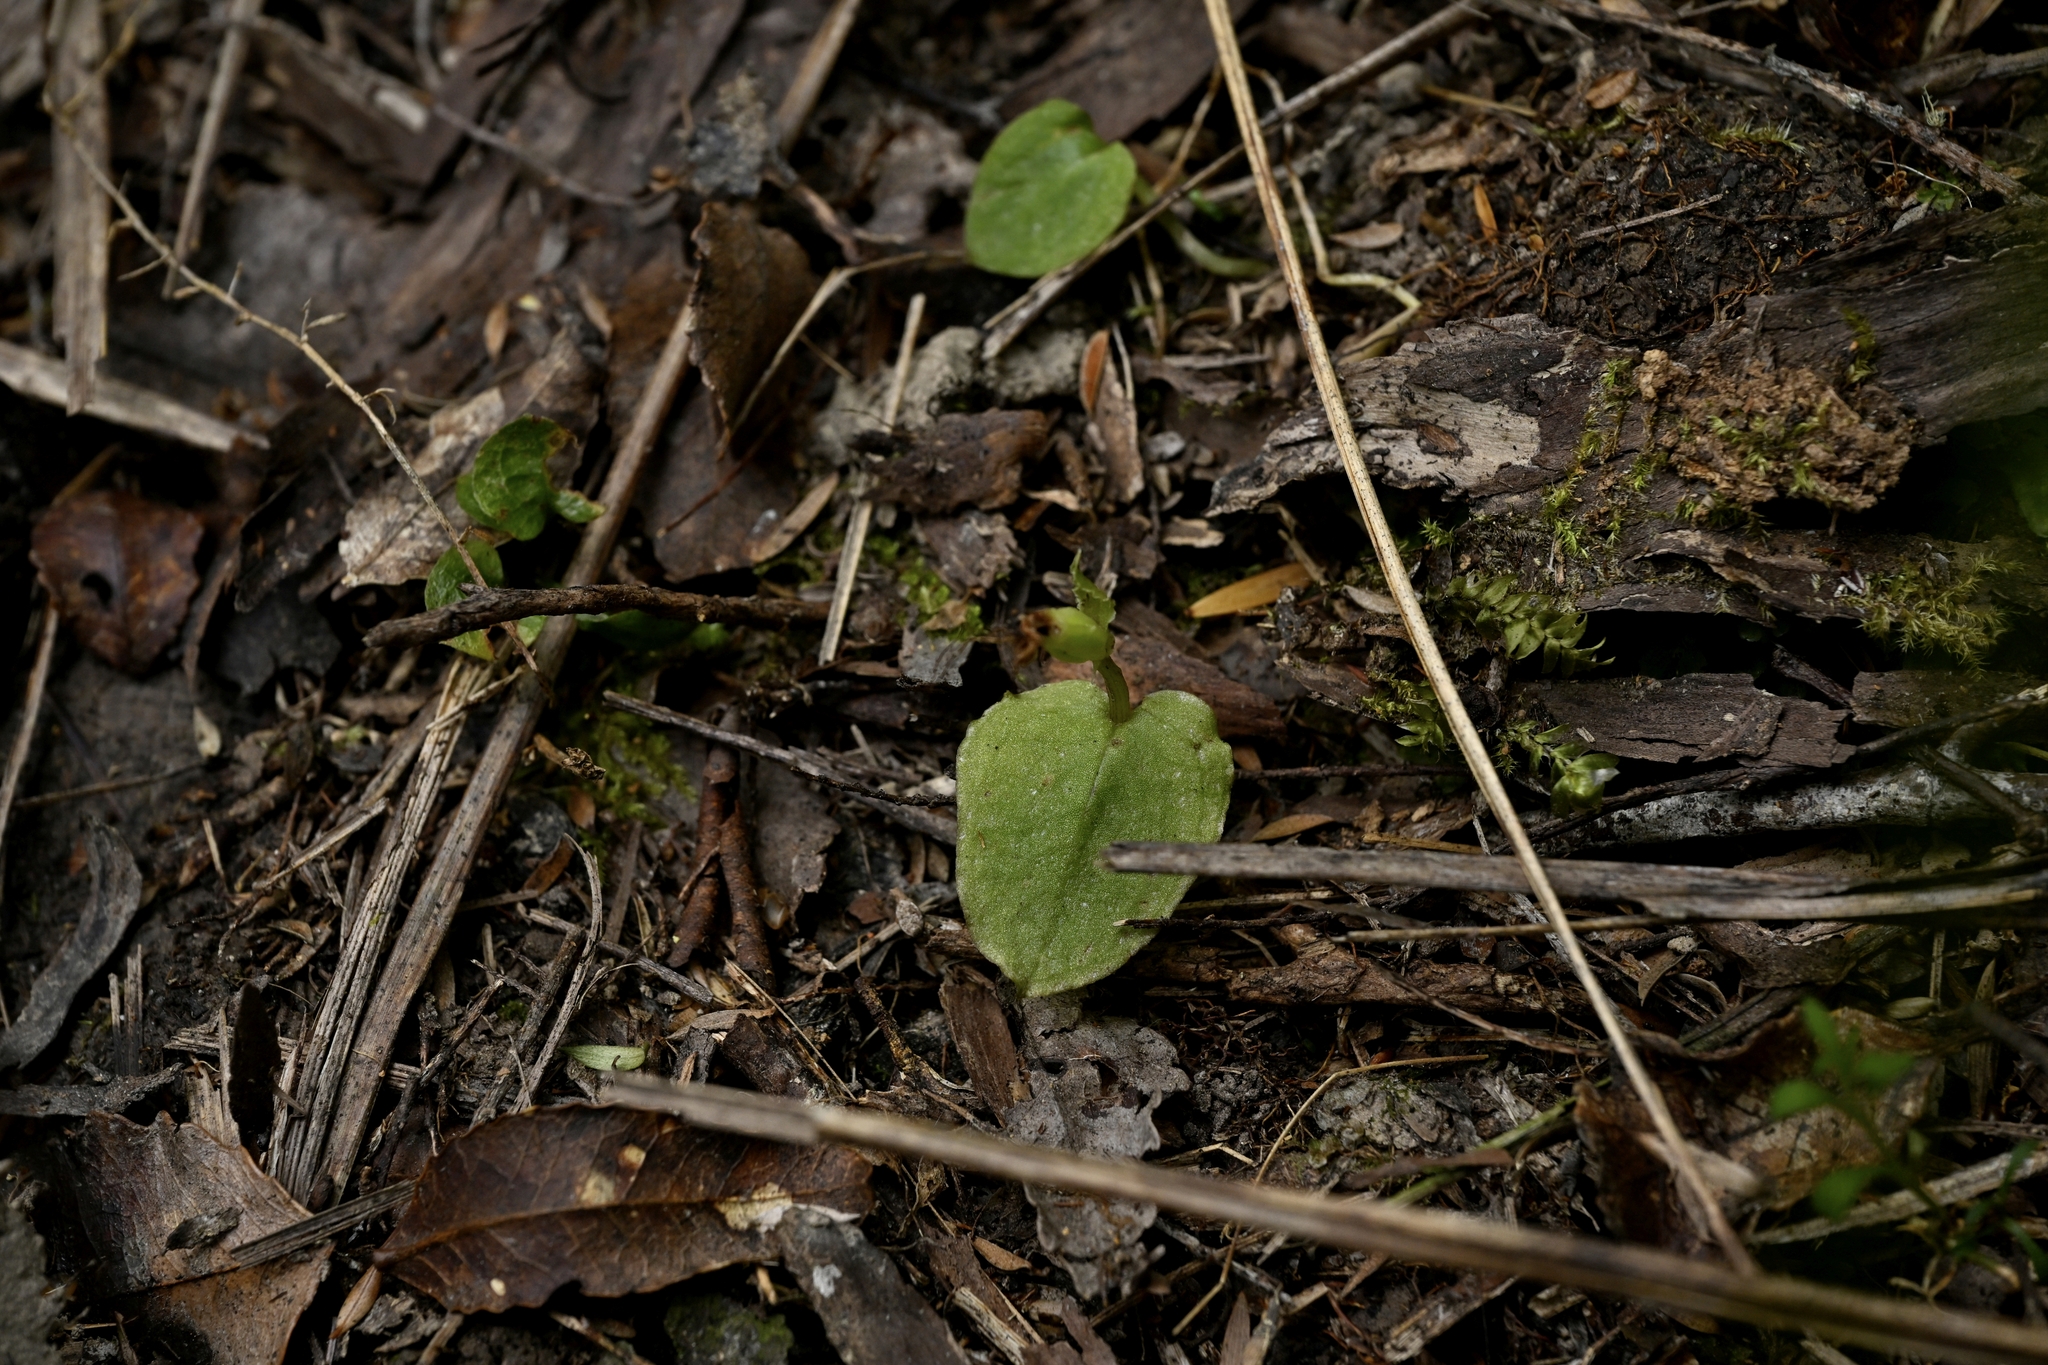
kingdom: Plantae
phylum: Tracheophyta
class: Liliopsida
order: Asparagales
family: Orchidaceae
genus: Corybas
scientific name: Corybas oblongus
